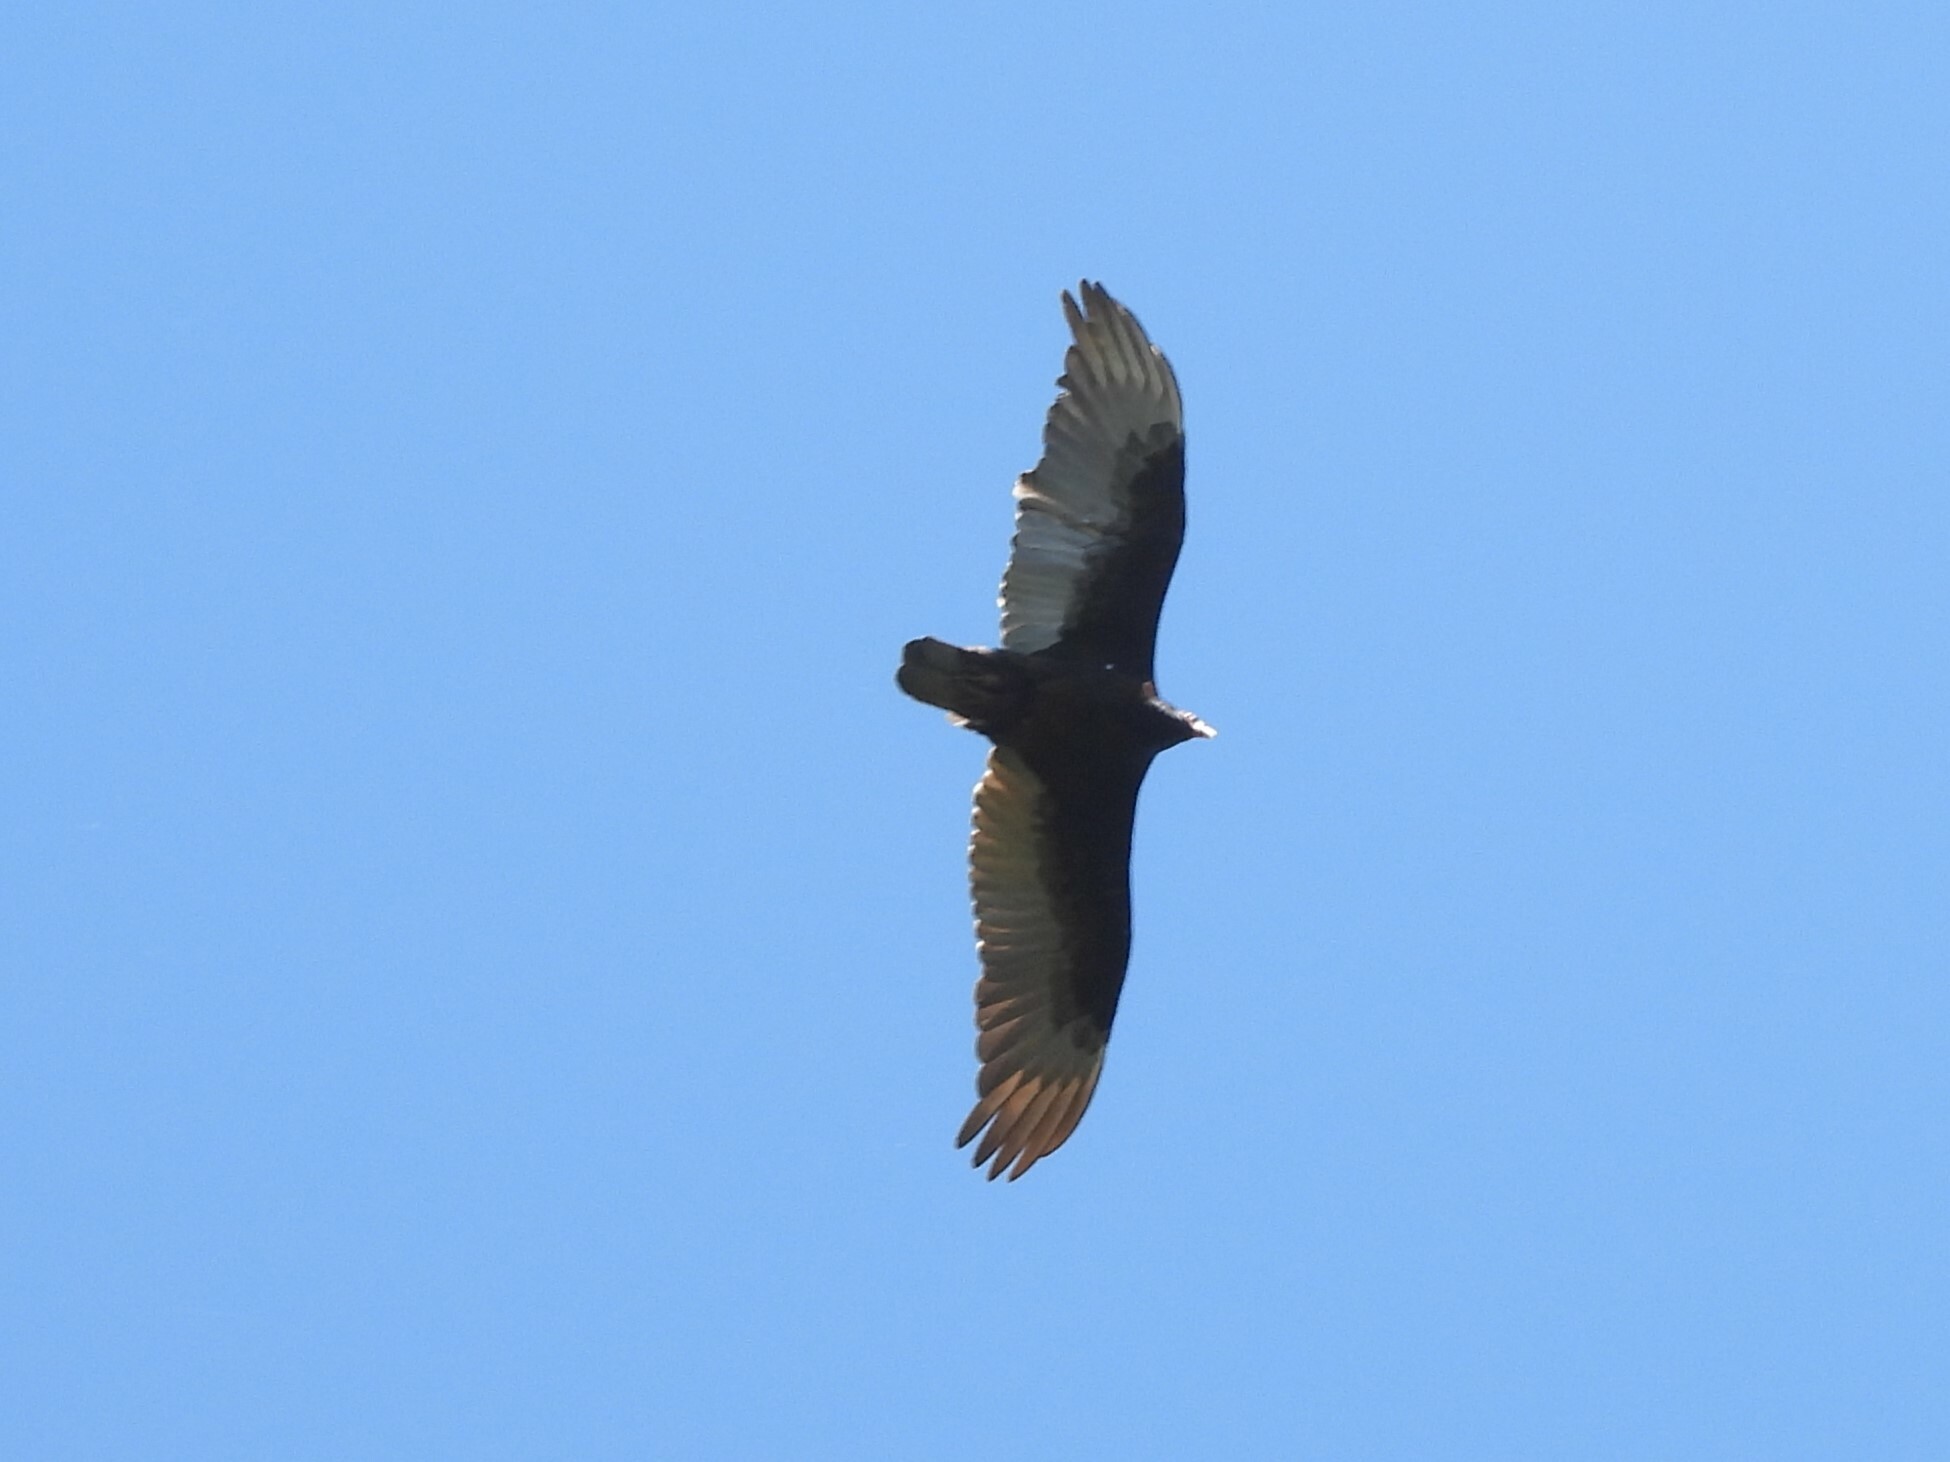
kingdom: Animalia
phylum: Chordata
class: Aves
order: Accipitriformes
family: Cathartidae
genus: Cathartes
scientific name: Cathartes aura
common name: Turkey vulture
